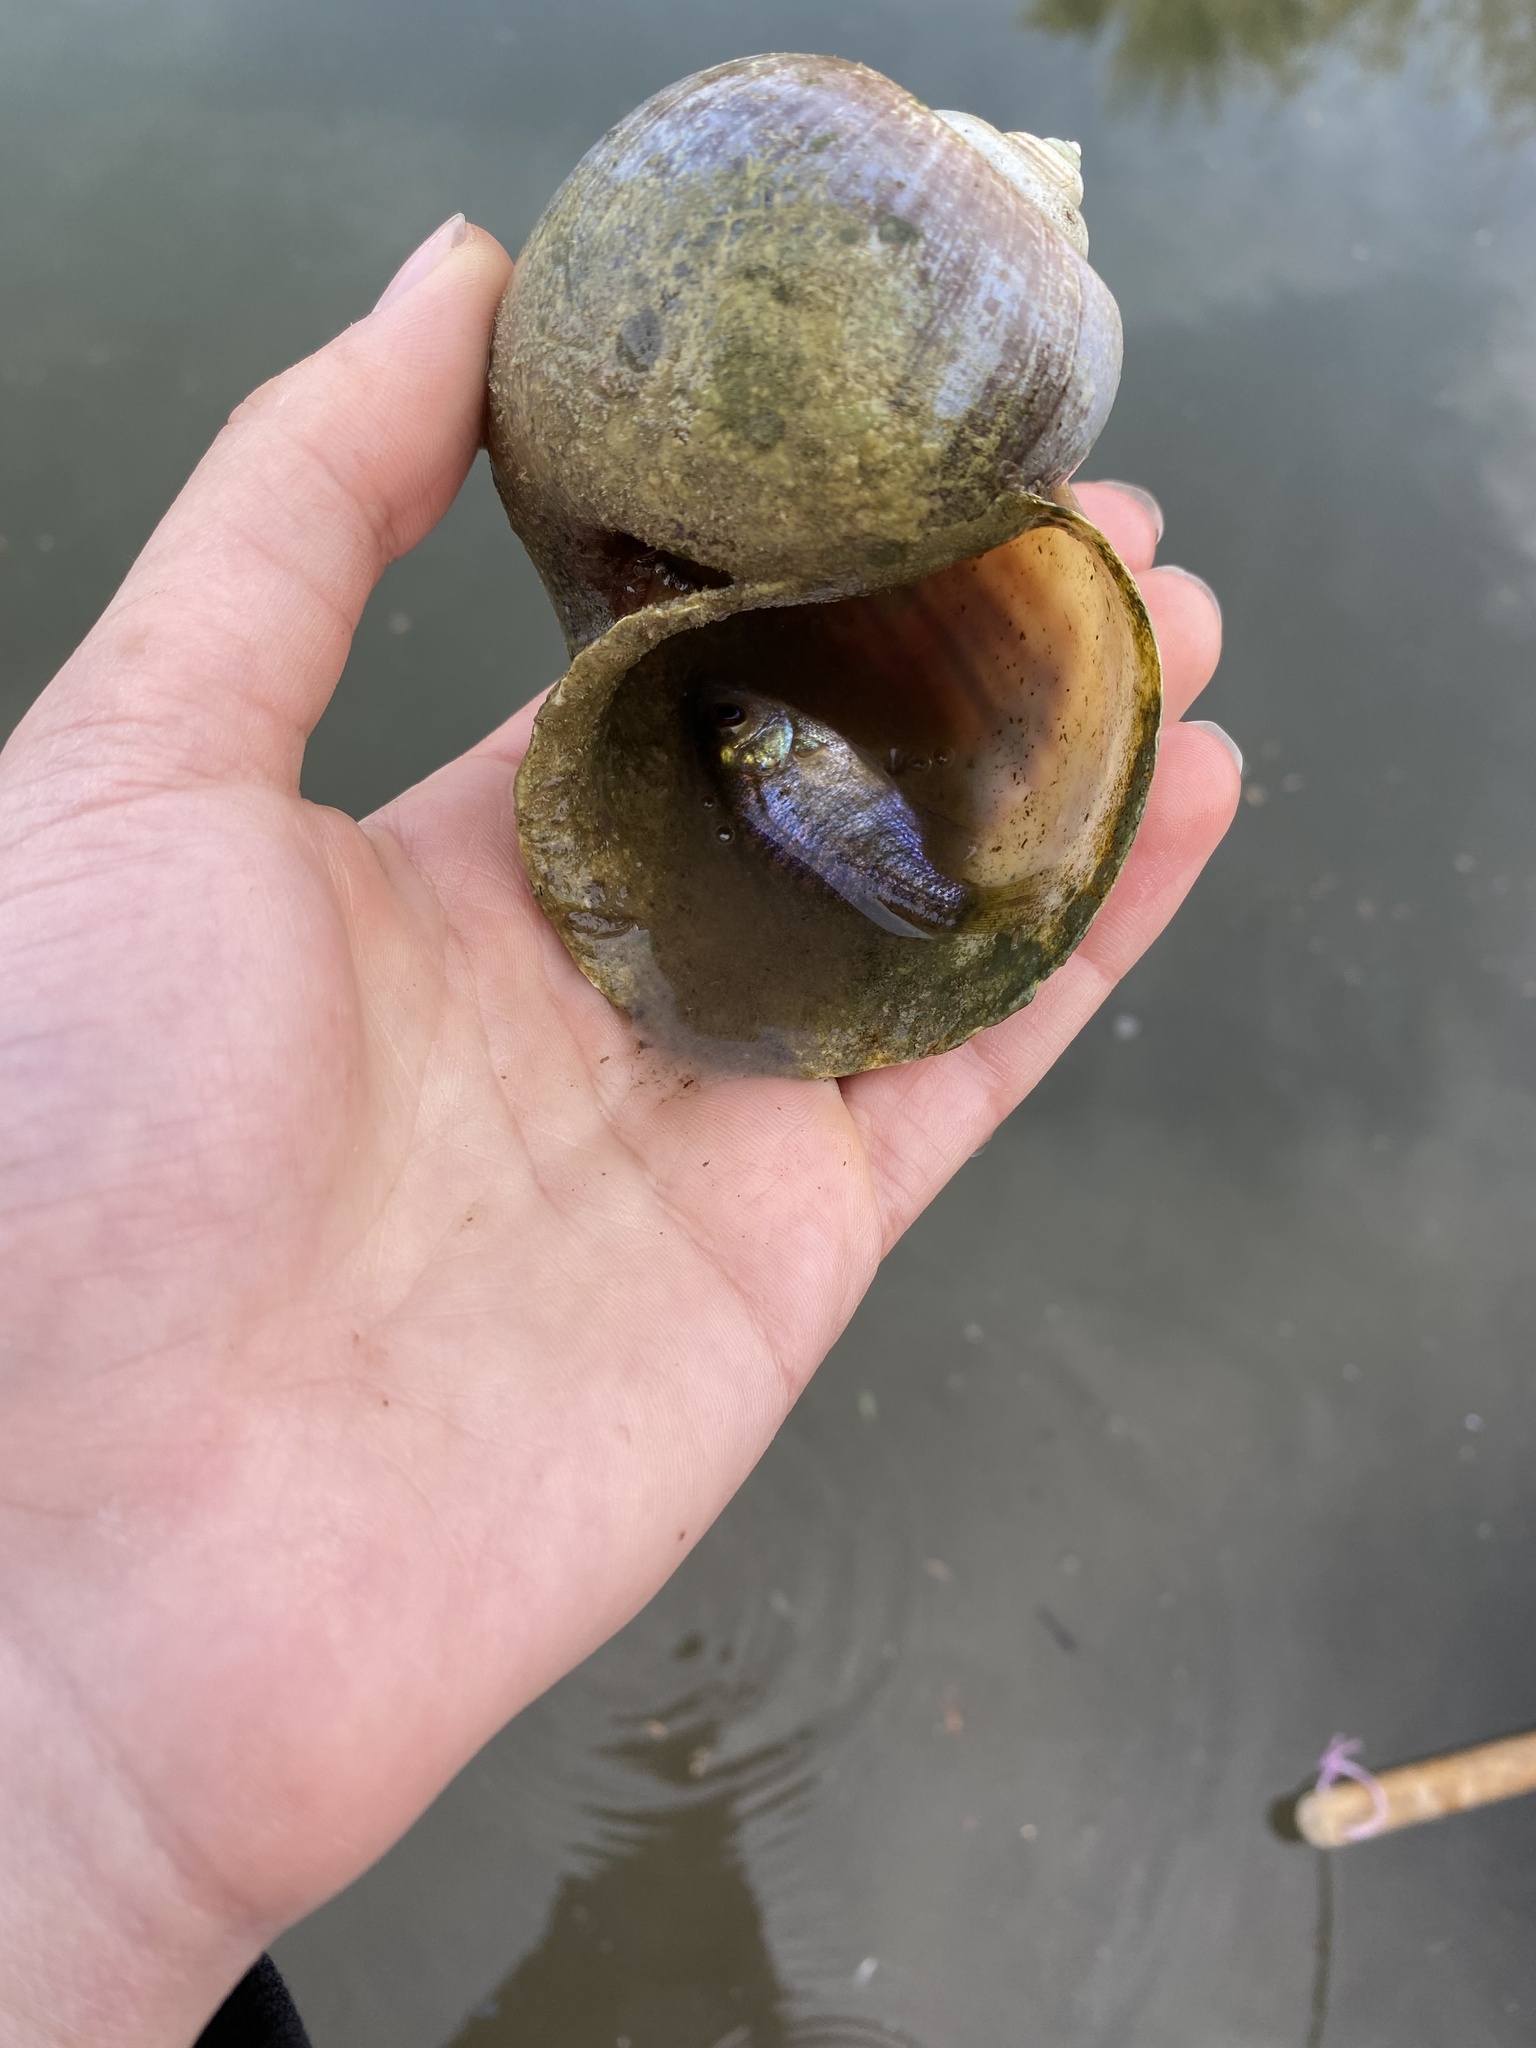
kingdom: Animalia
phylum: Chordata
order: Perciformes
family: Centrarchidae
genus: Lepomis
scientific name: Lepomis macrochirus
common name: Bluegill
